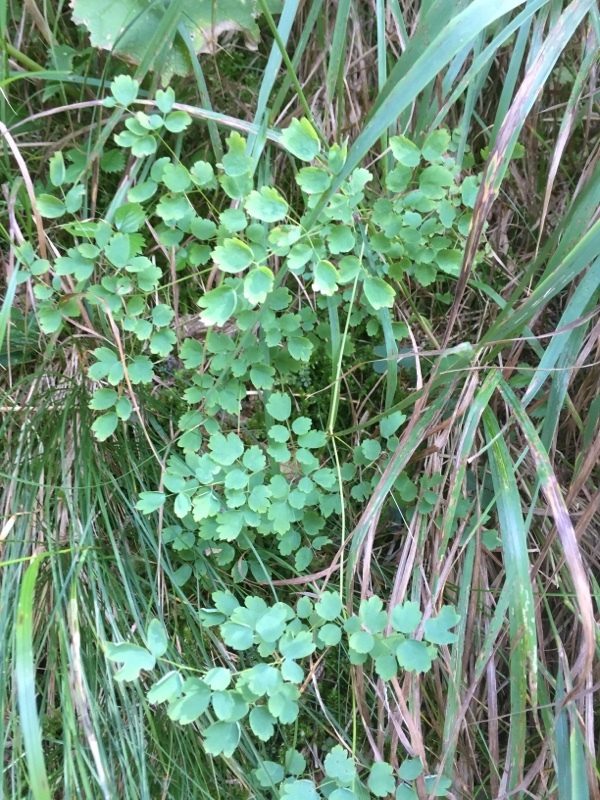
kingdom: Plantae
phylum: Tracheophyta
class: Magnoliopsida
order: Ranunculales
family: Ranunculaceae
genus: Thalictrum
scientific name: Thalictrum minus
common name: Lesser meadow-rue
